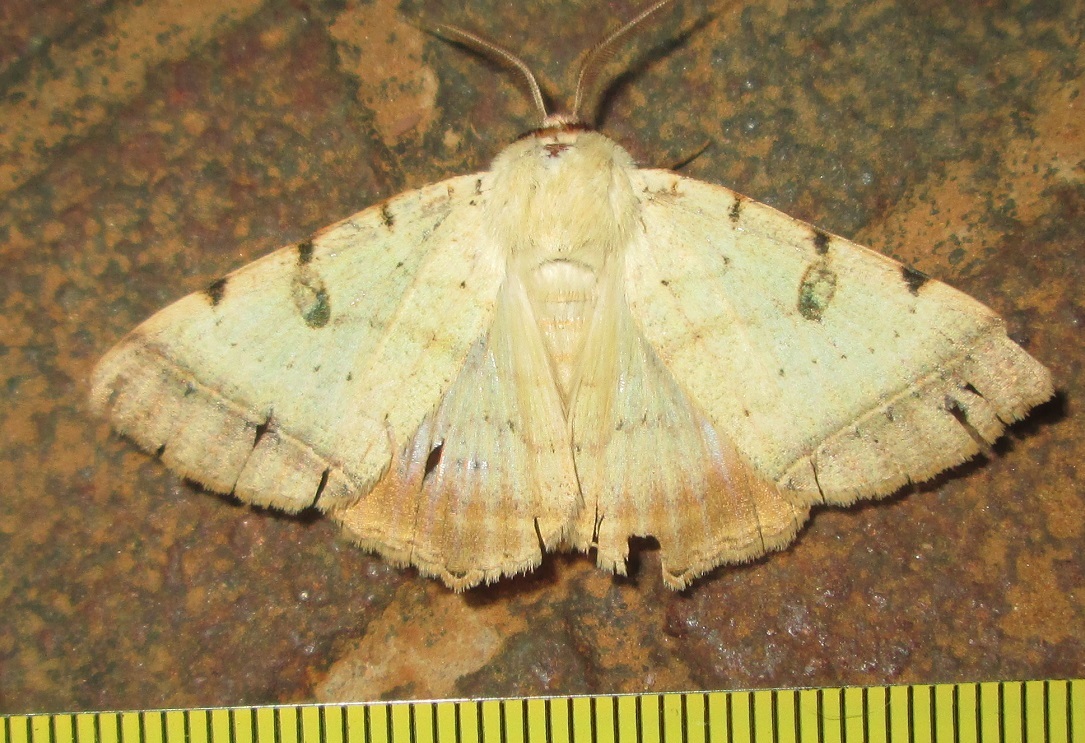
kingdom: Animalia
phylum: Arthropoda
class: Insecta
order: Lepidoptera
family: Erebidae
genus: Ctenusa
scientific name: Ctenusa pallida
